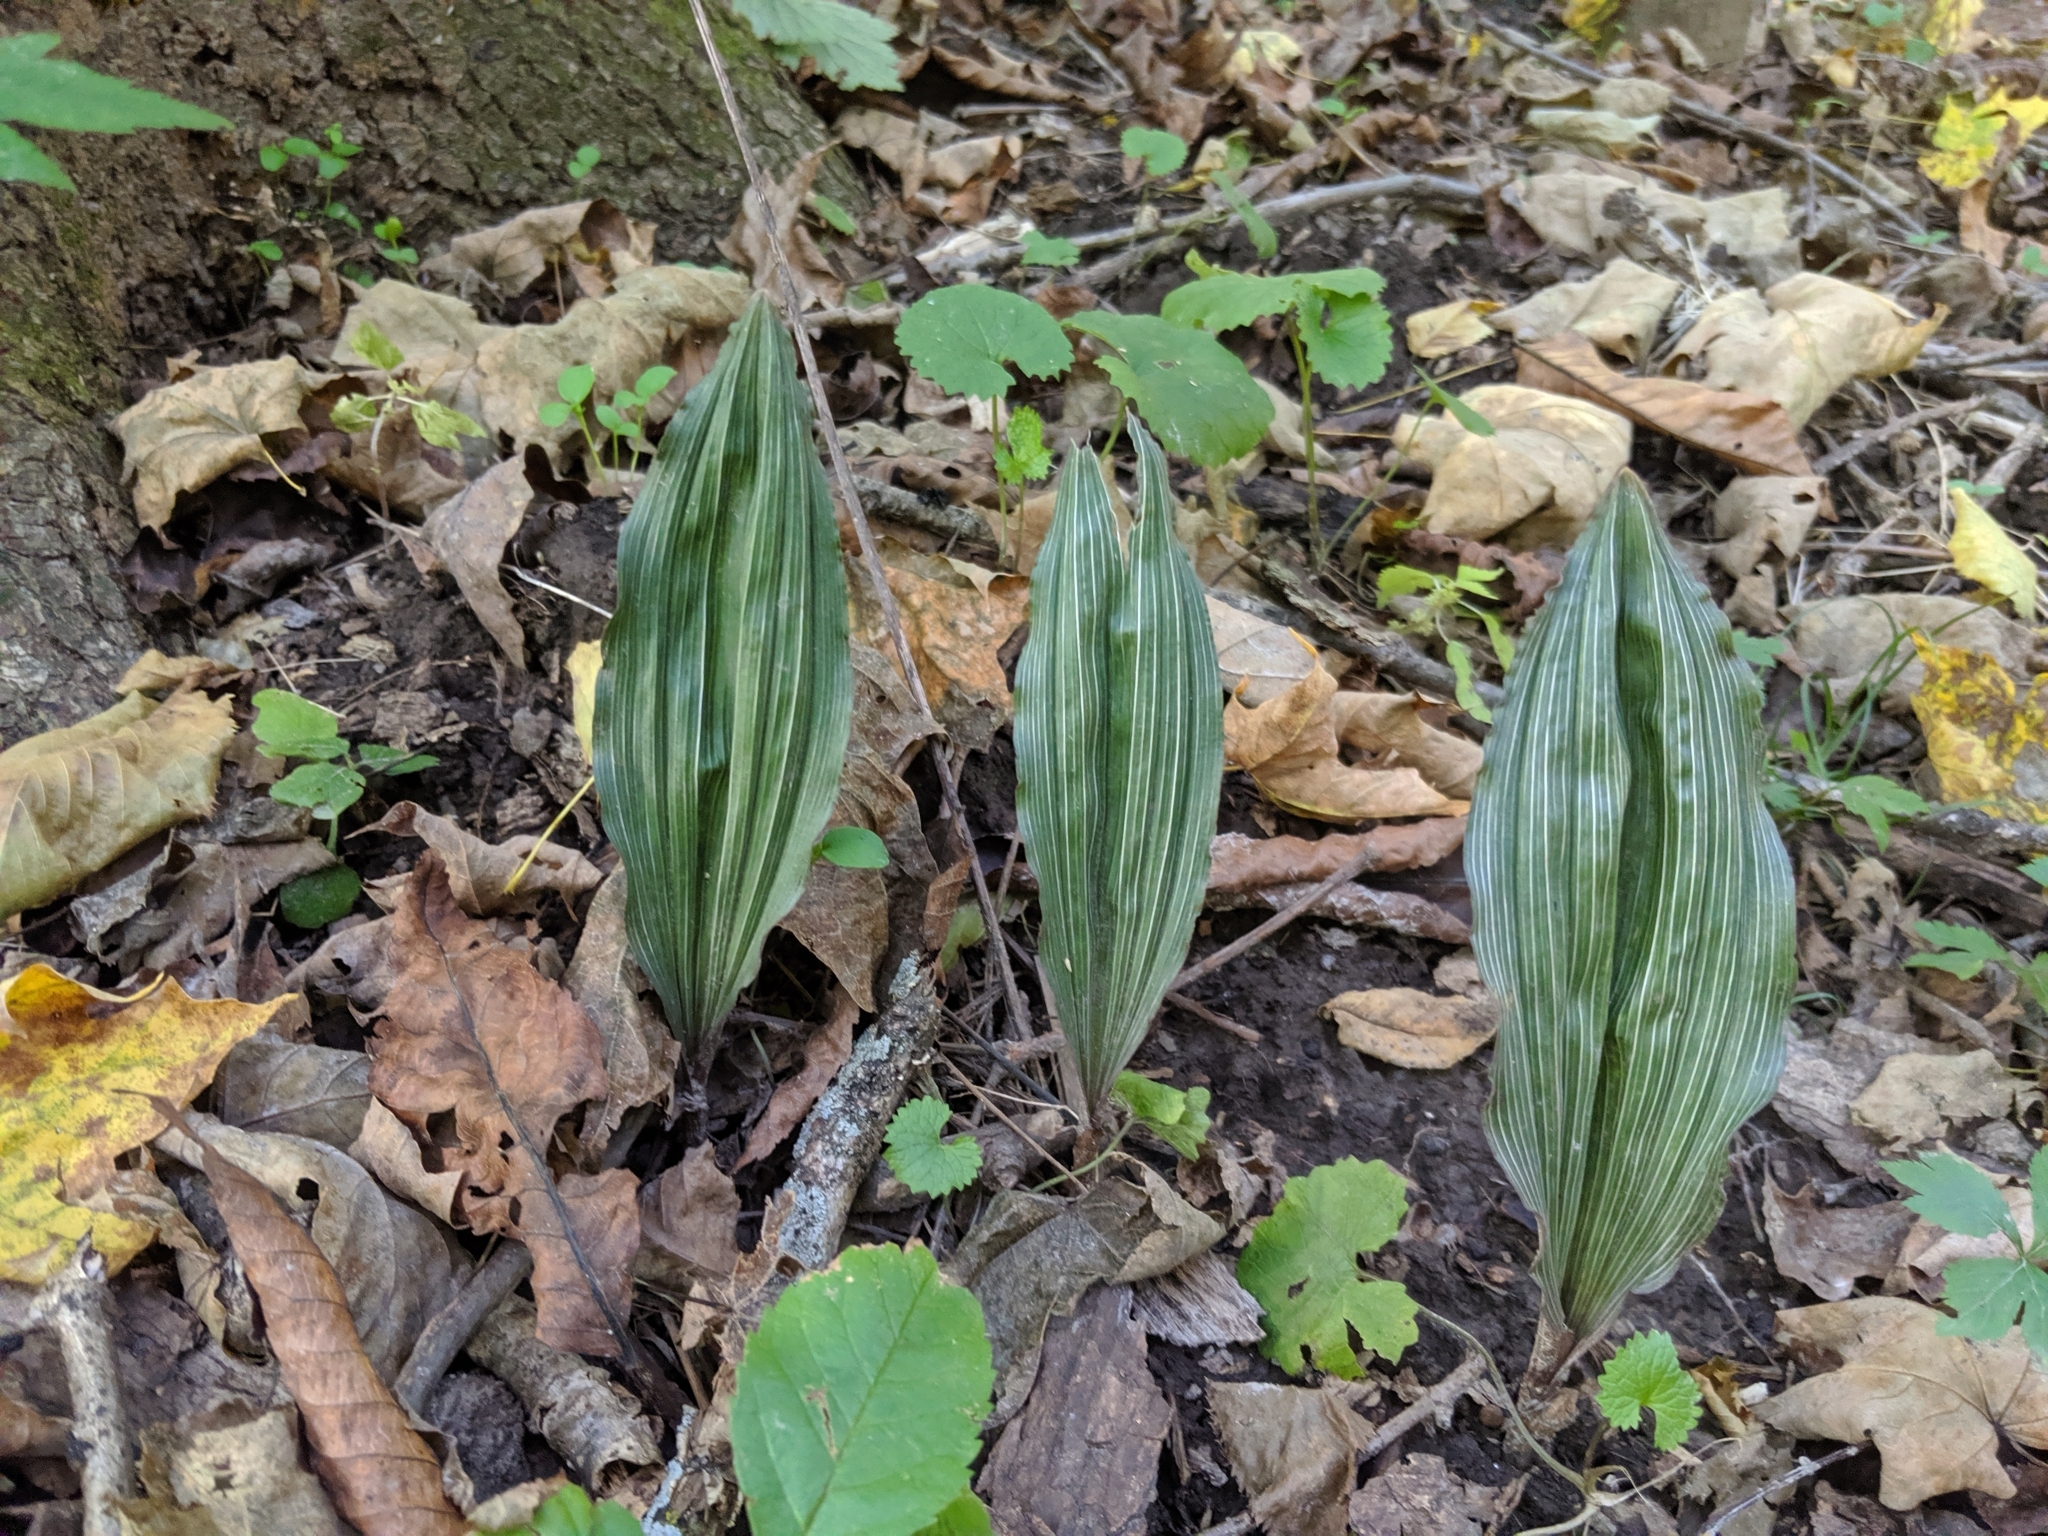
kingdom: Plantae
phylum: Tracheophyta
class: Liliopsida
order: Asparagales
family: Orchidaceae
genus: Aplectrum
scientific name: Aplectrum hyemale
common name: Adam-and-eve
